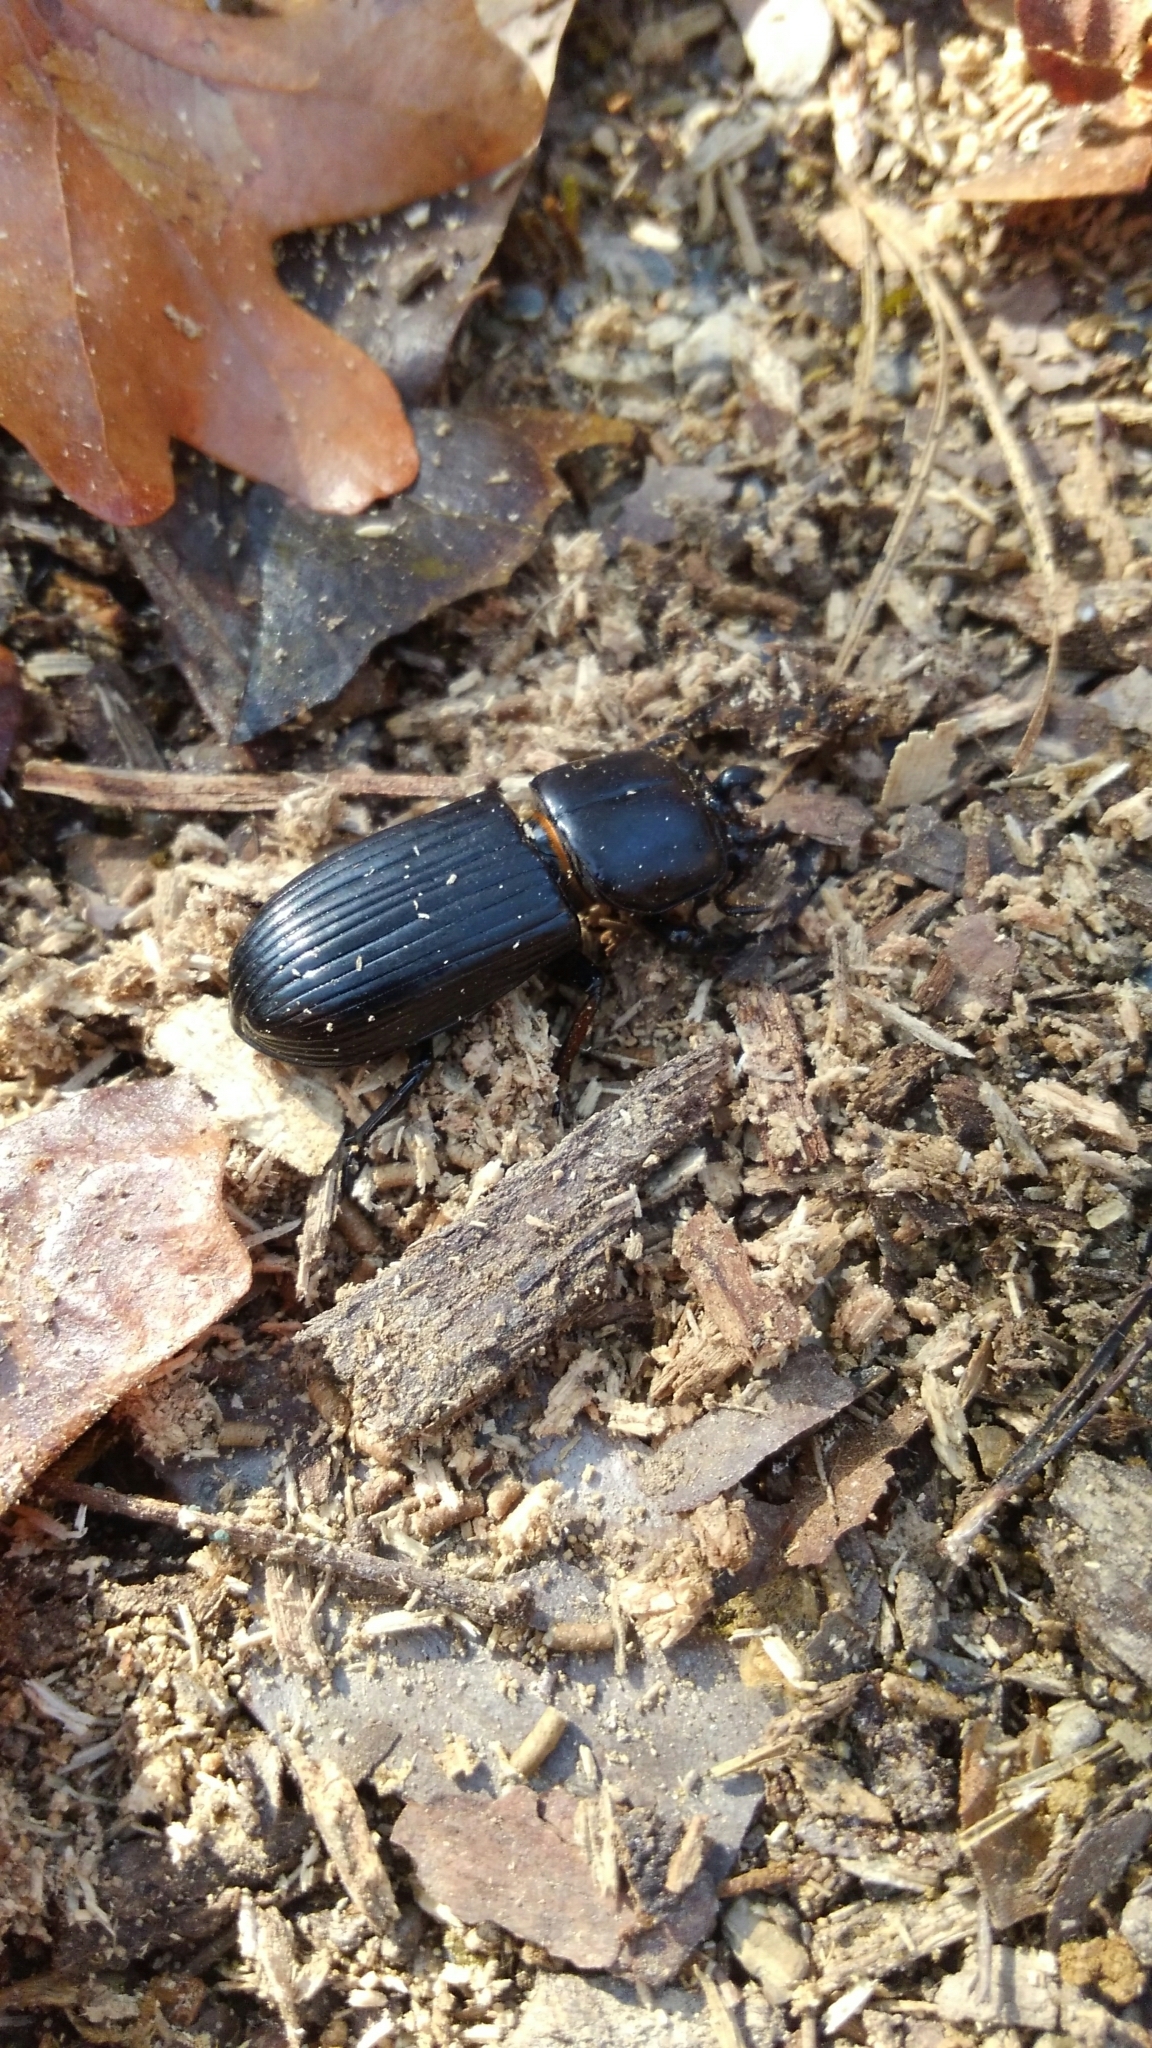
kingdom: Animalia
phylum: Arthropoda
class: Insecta
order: Coleoptera
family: Passalidae
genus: Odontotaenius
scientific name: Odontotaenius disjunctus
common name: Patent leather beetle
